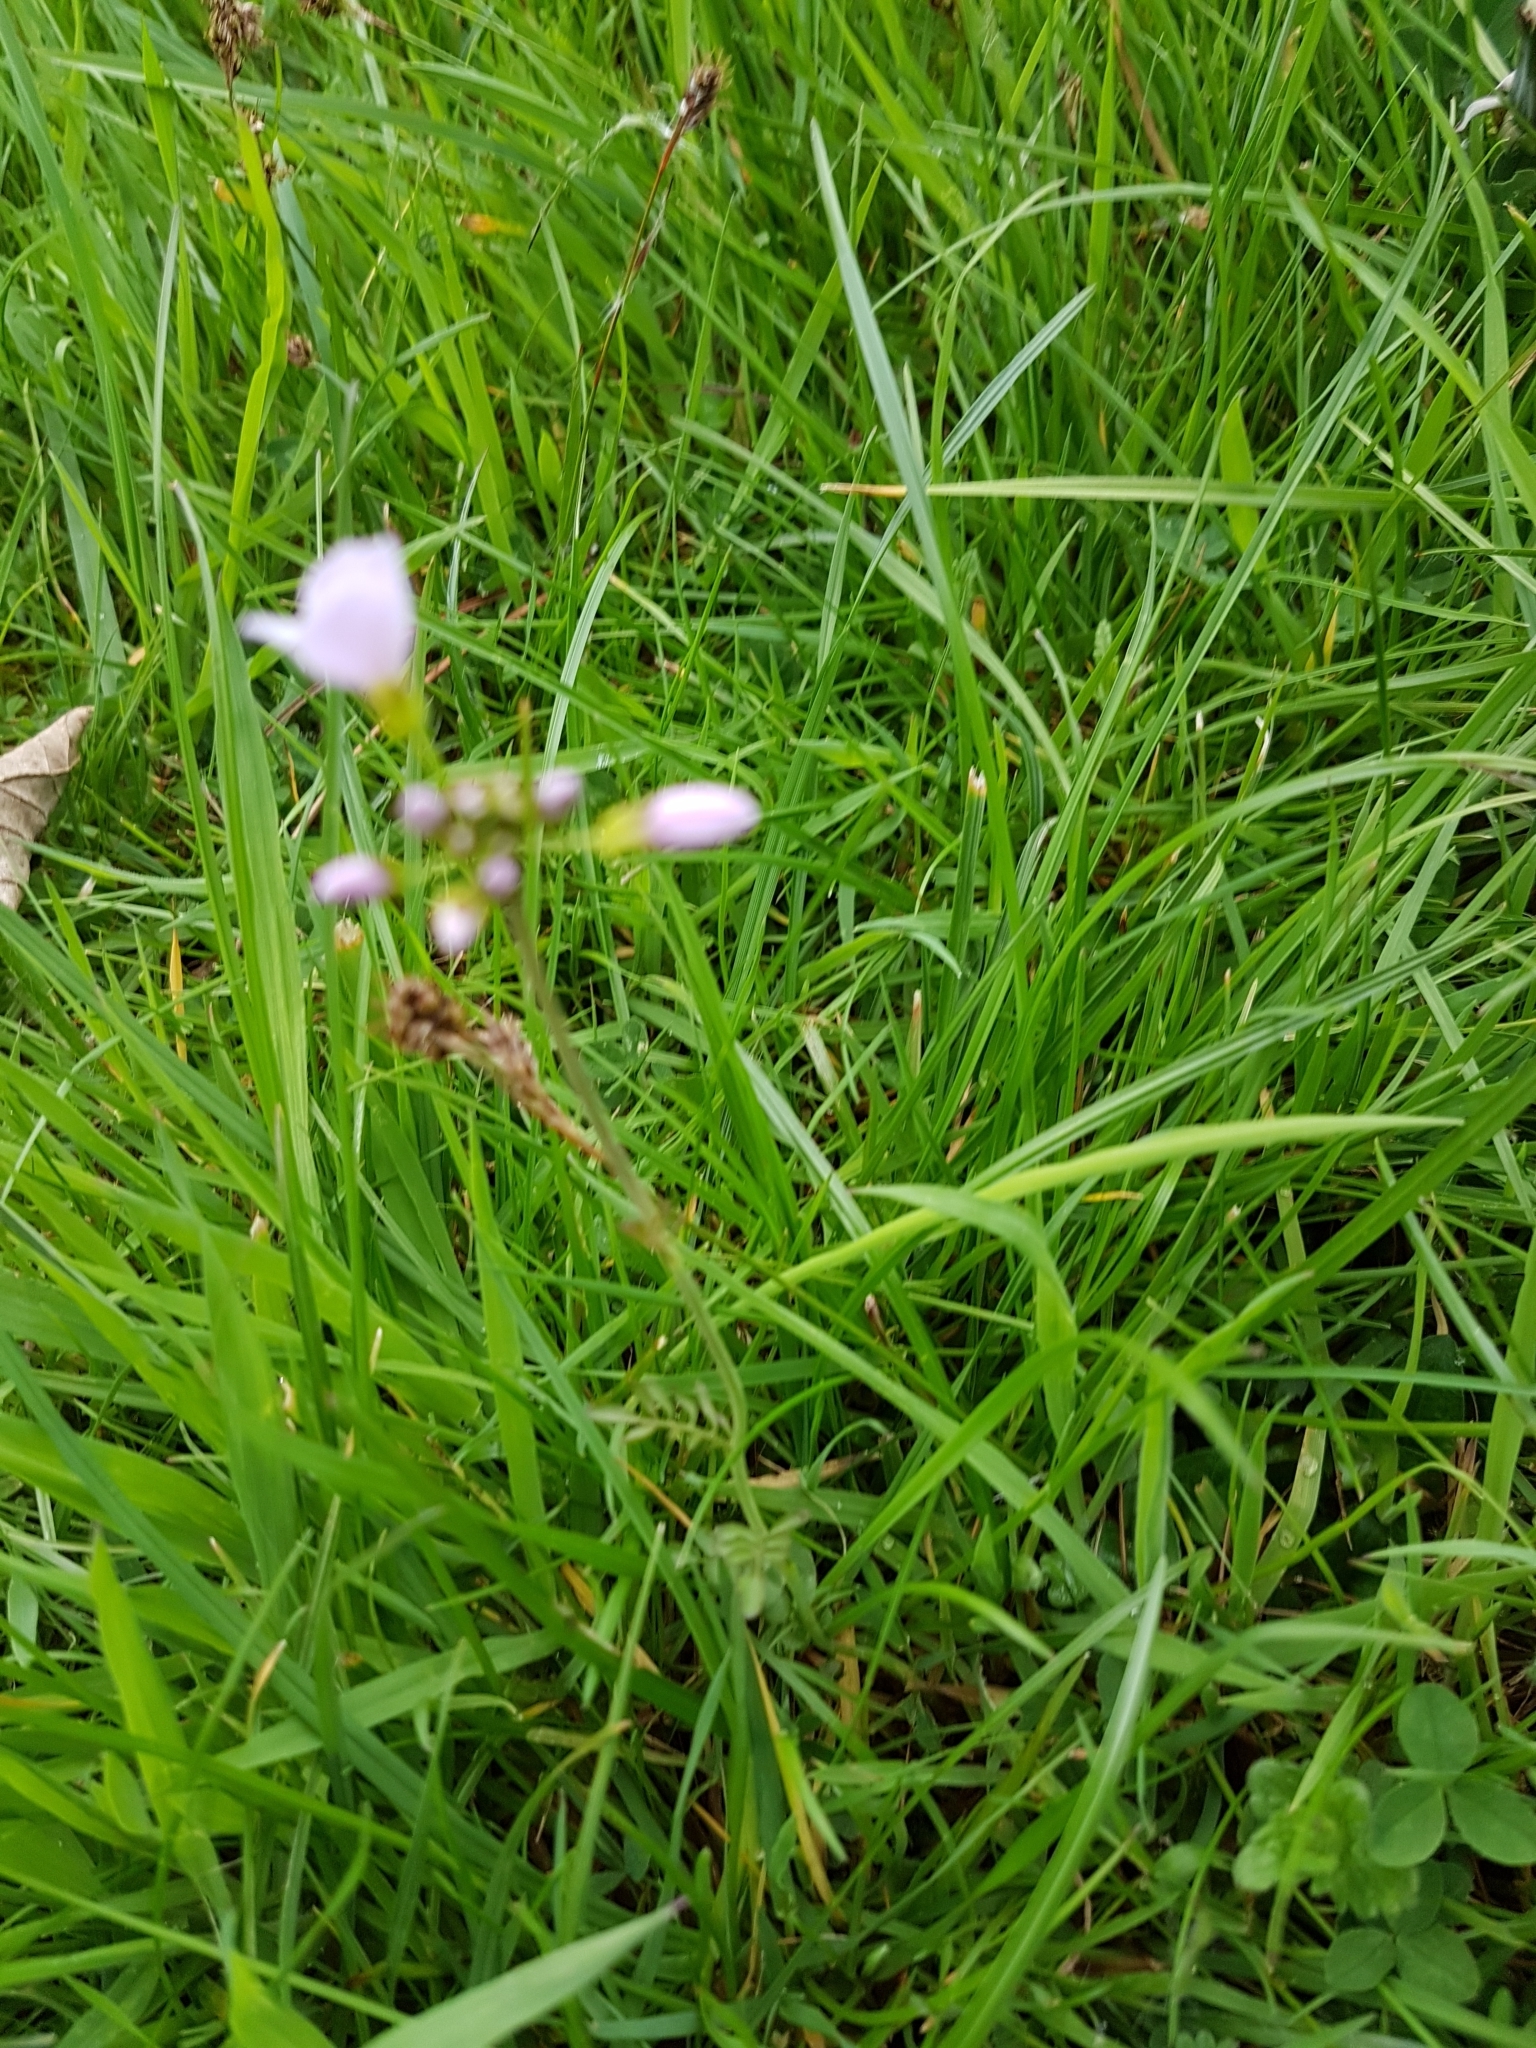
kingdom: Plantae
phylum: Tracheophyta
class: Magnoliopsida
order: Brassicales
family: Brassicaceae
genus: Cardamine
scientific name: Cardamine pratensis
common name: Cuckoo flower
